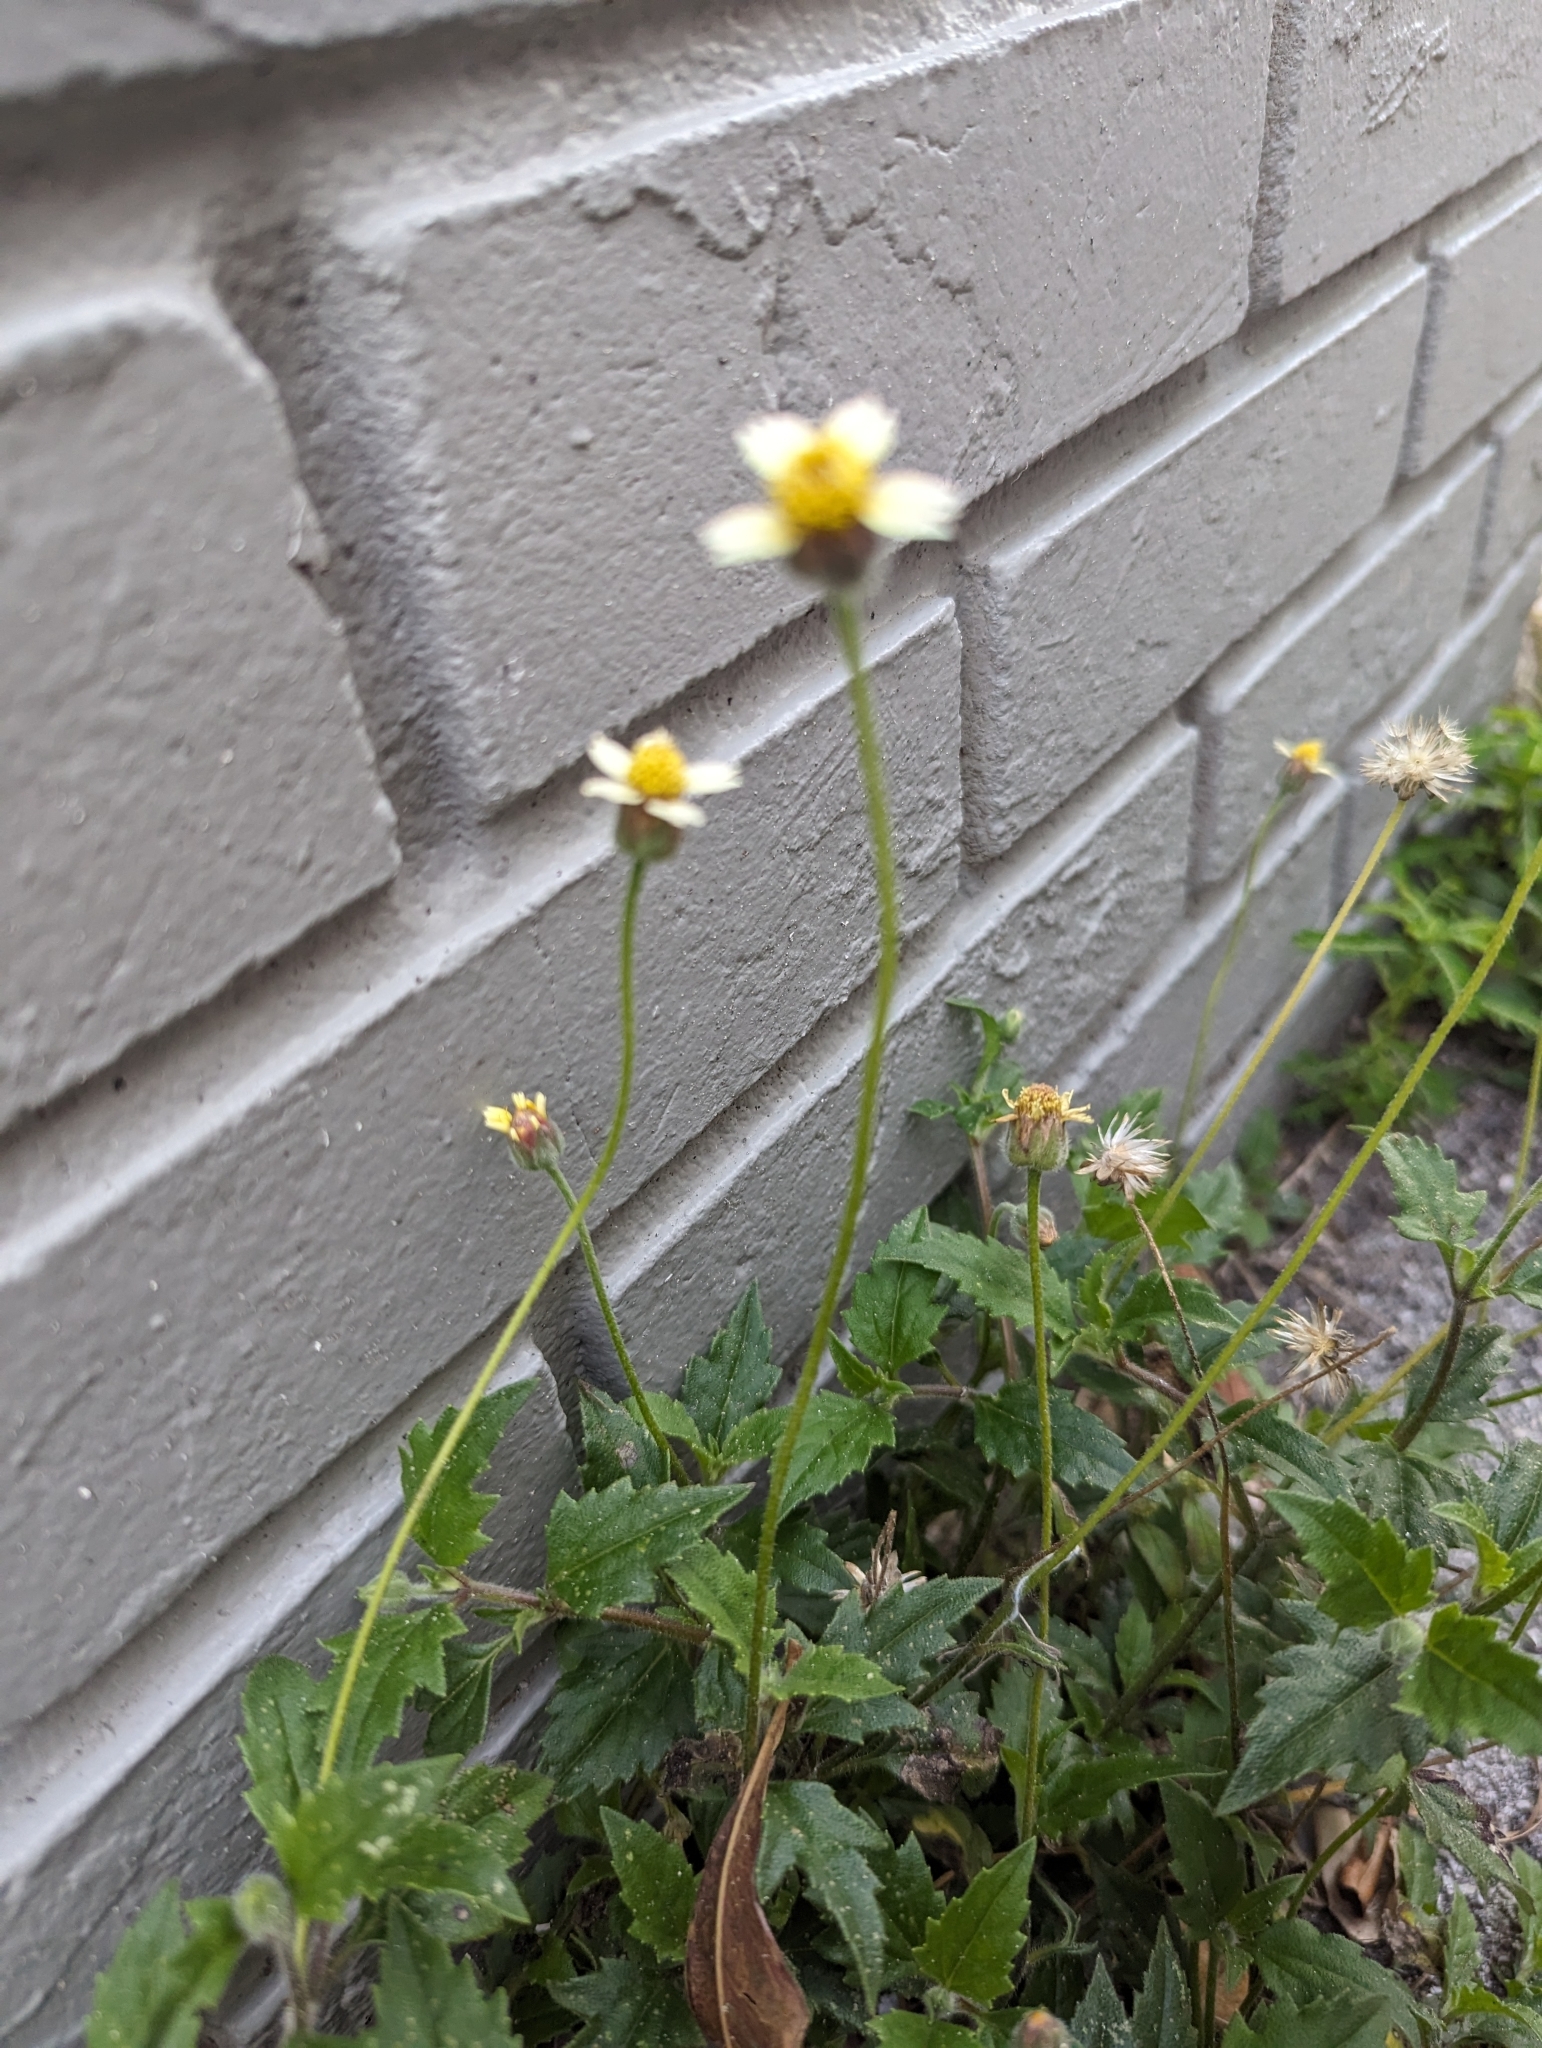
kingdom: Plantae
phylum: Tracheophyta
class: Magnoliopsida
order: Asterales
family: Asteraceae
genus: Tridax
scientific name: Tridax procumbens
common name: Coatbuttons
